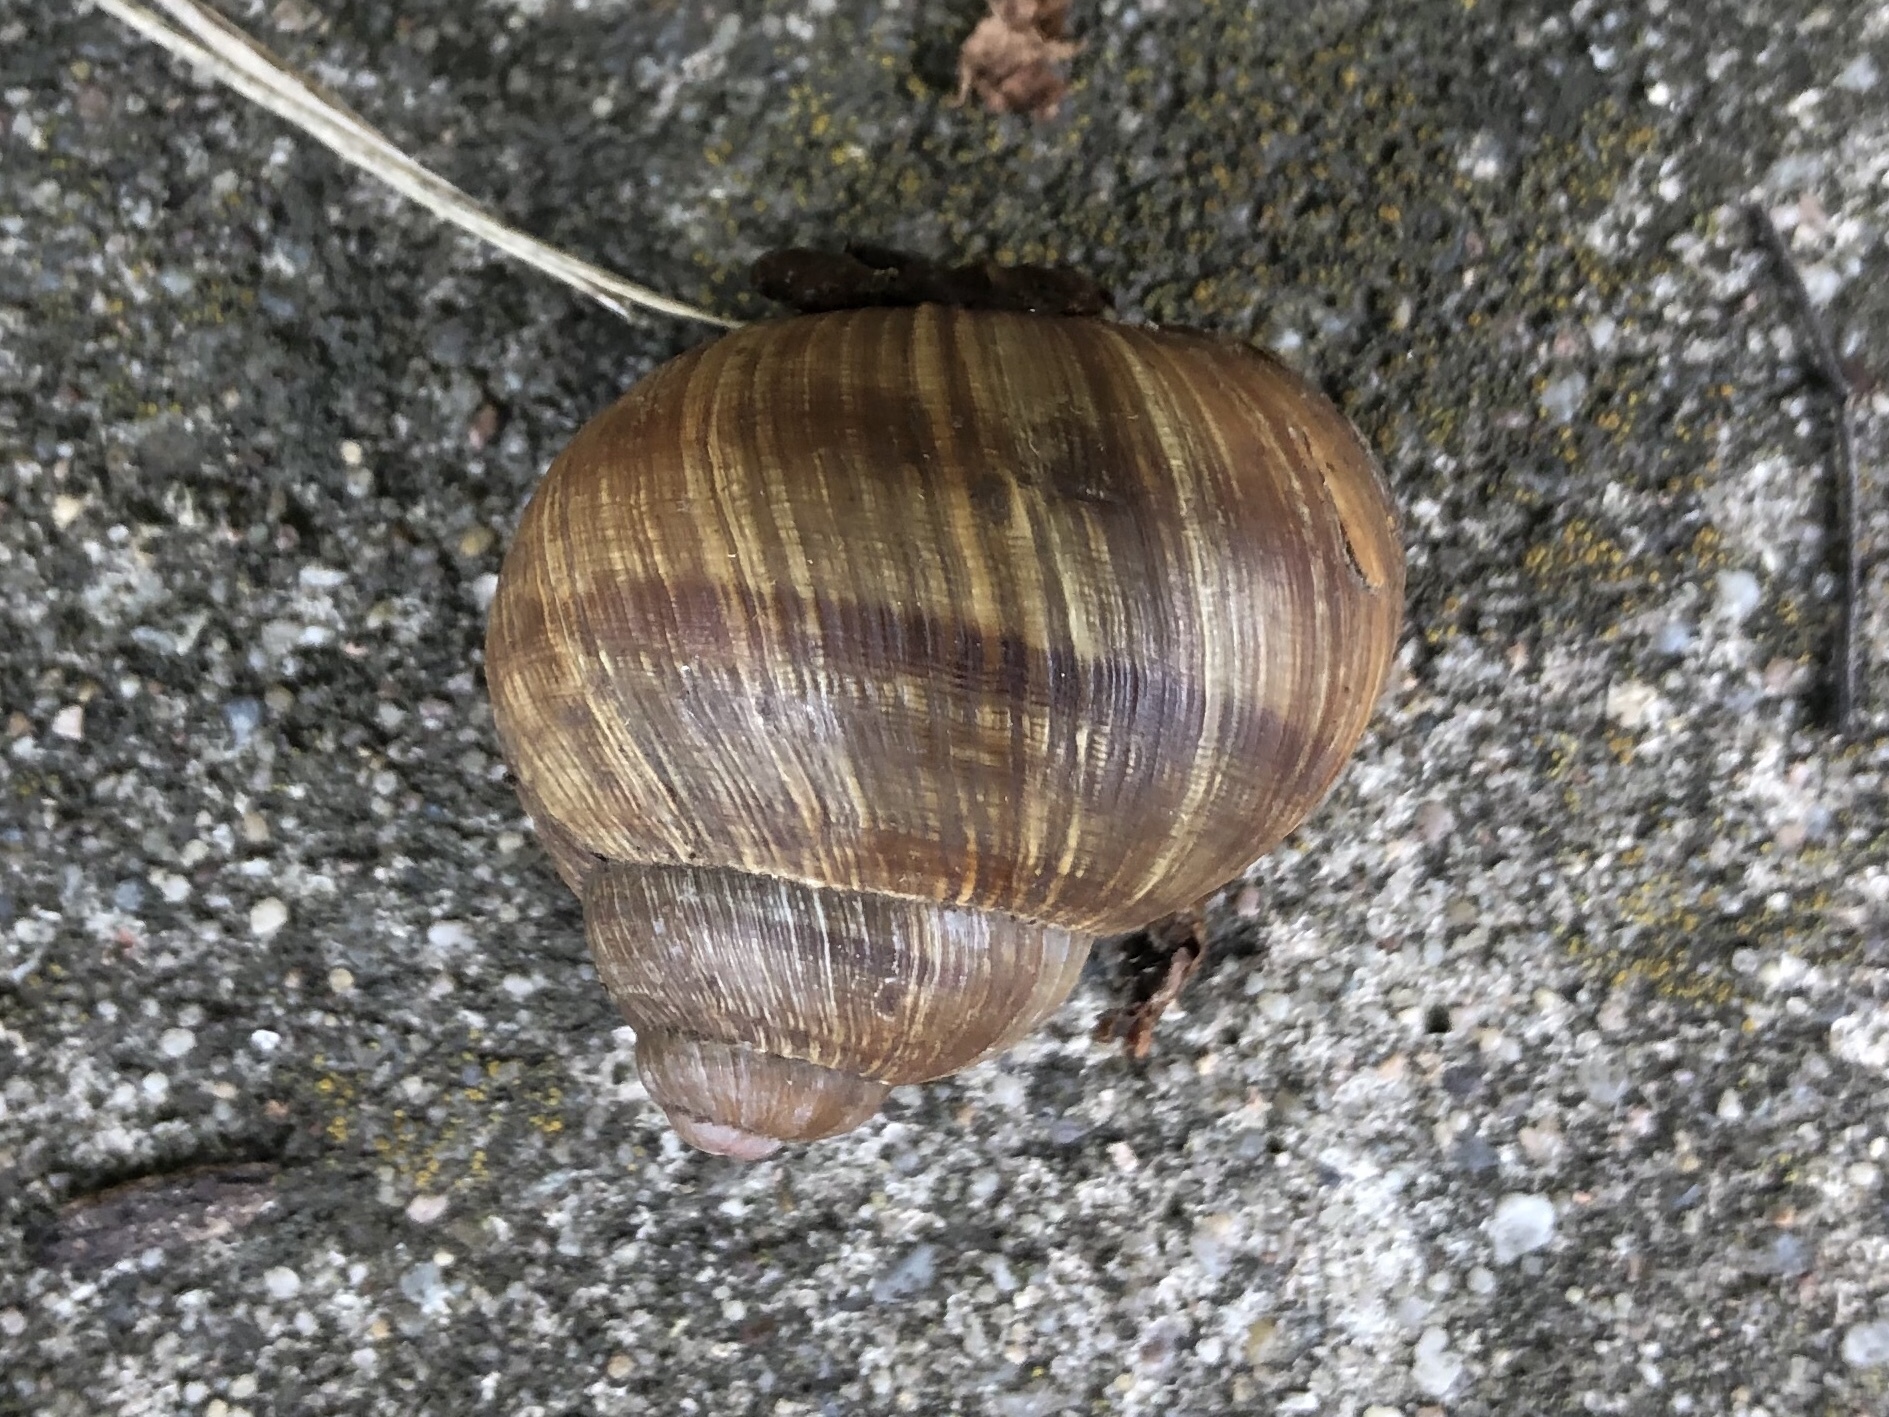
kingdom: Animalia
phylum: Mollusca
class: Gastropoda
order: Stylommatophora
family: Helicidae
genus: Helix
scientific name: Helix pomatia
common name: Roman snail
